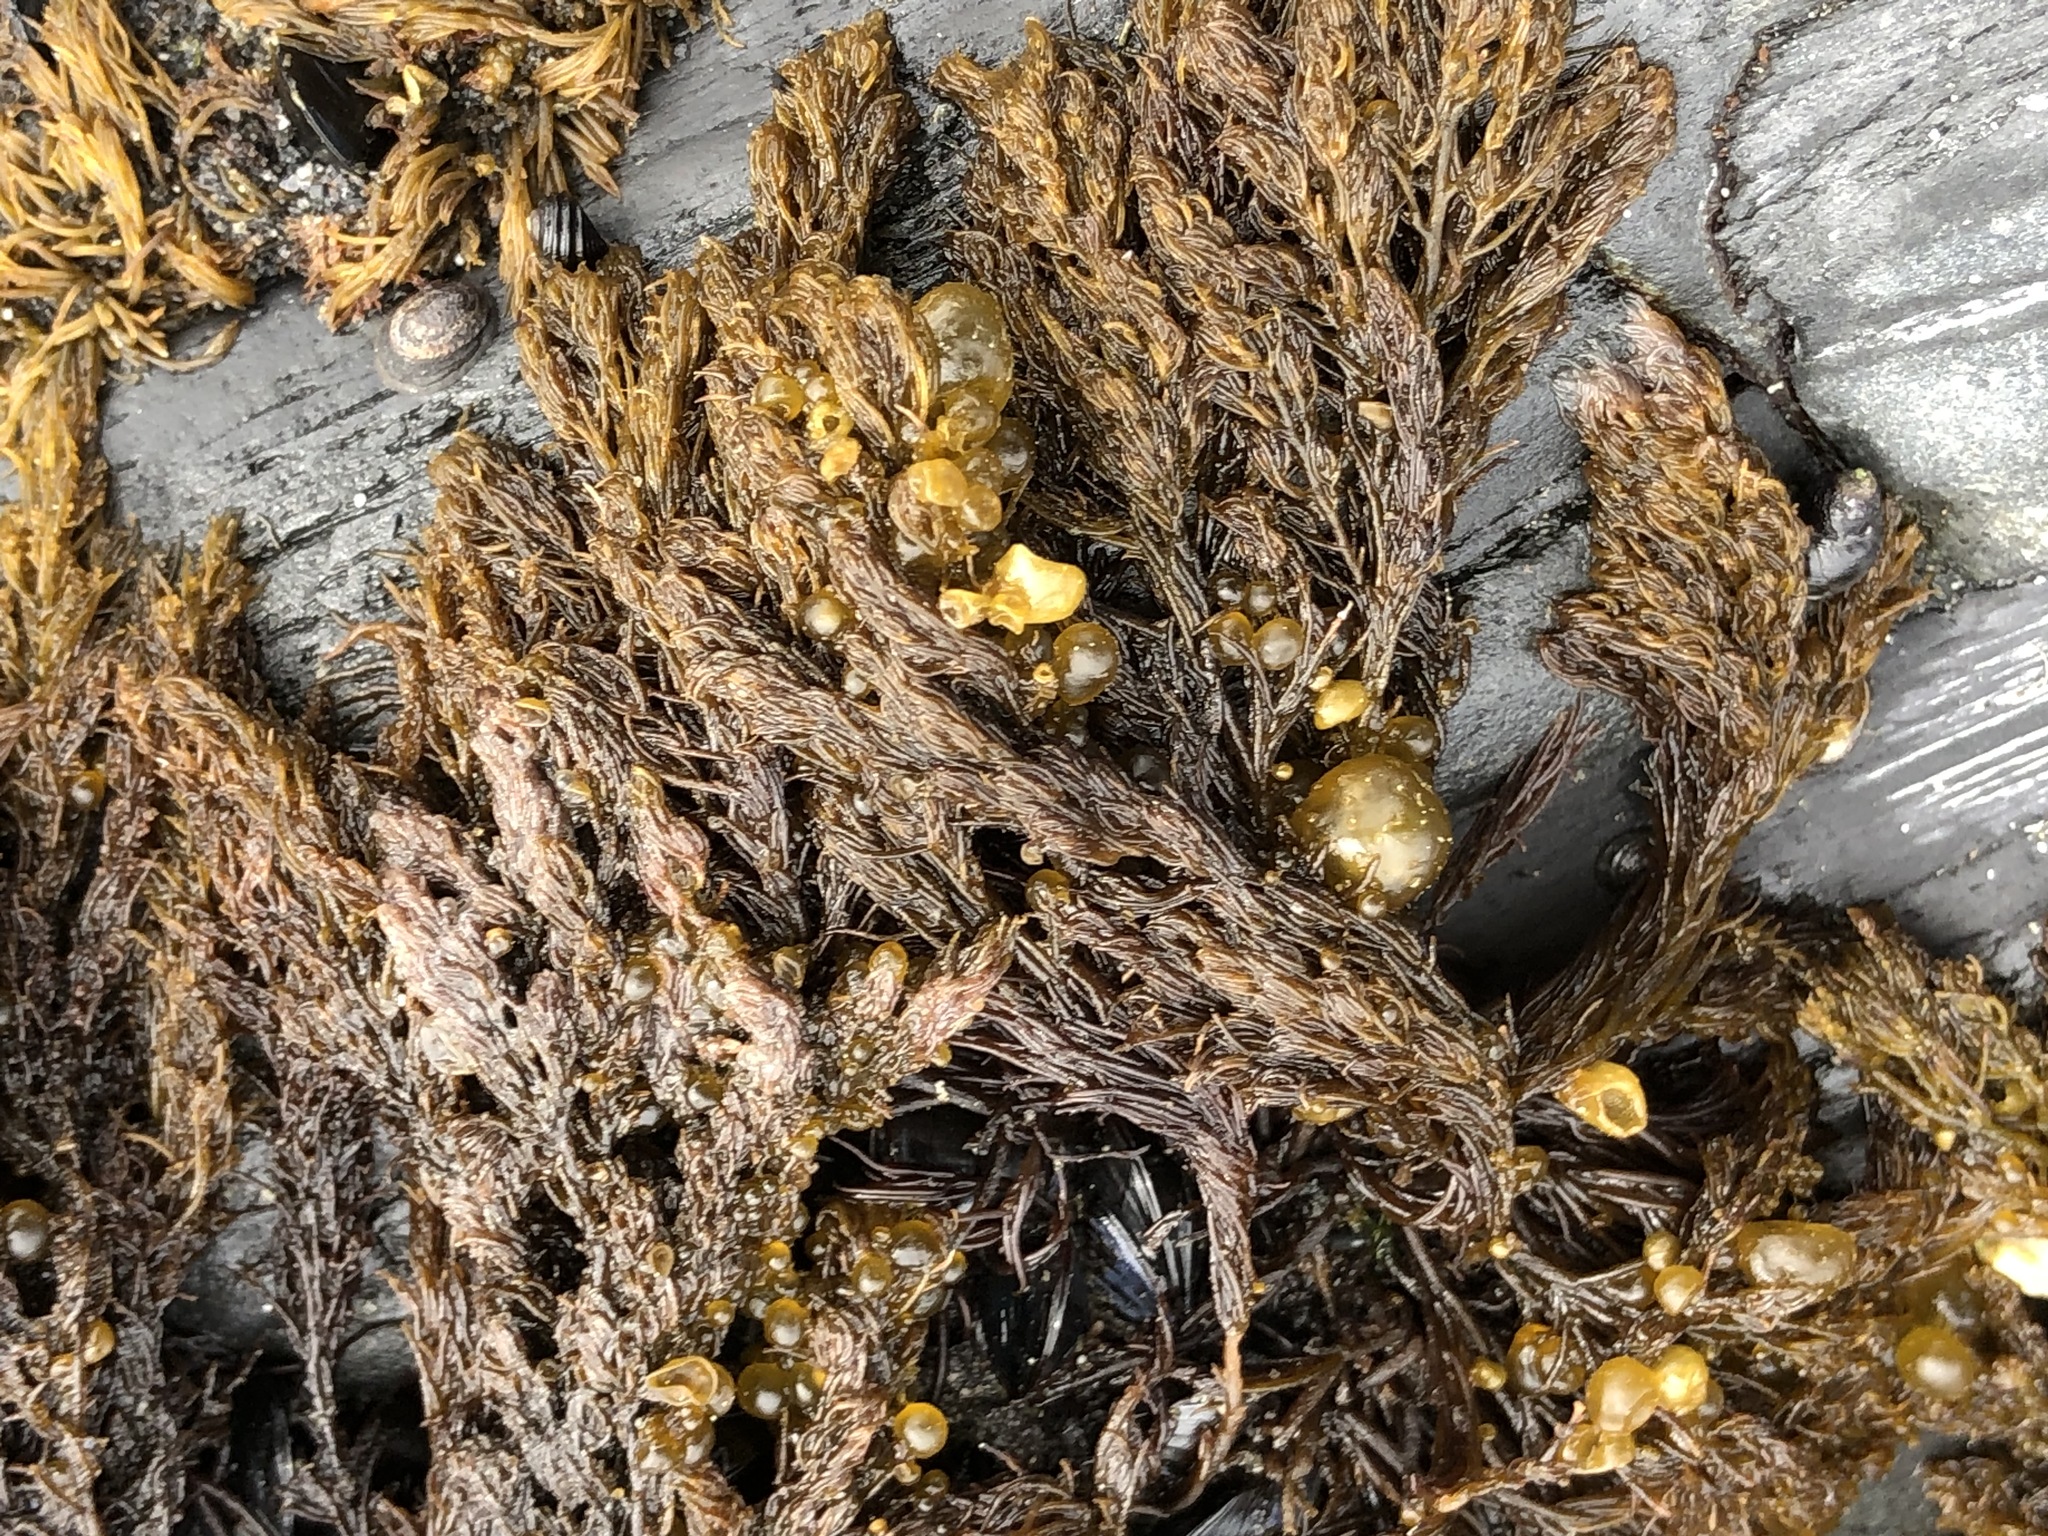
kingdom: Plantae
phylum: Rhodophyta
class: Florideophyceae
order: Ceramiales
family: Rhodomelaceae
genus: Odonthalia
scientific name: Odonthalia floccosa
